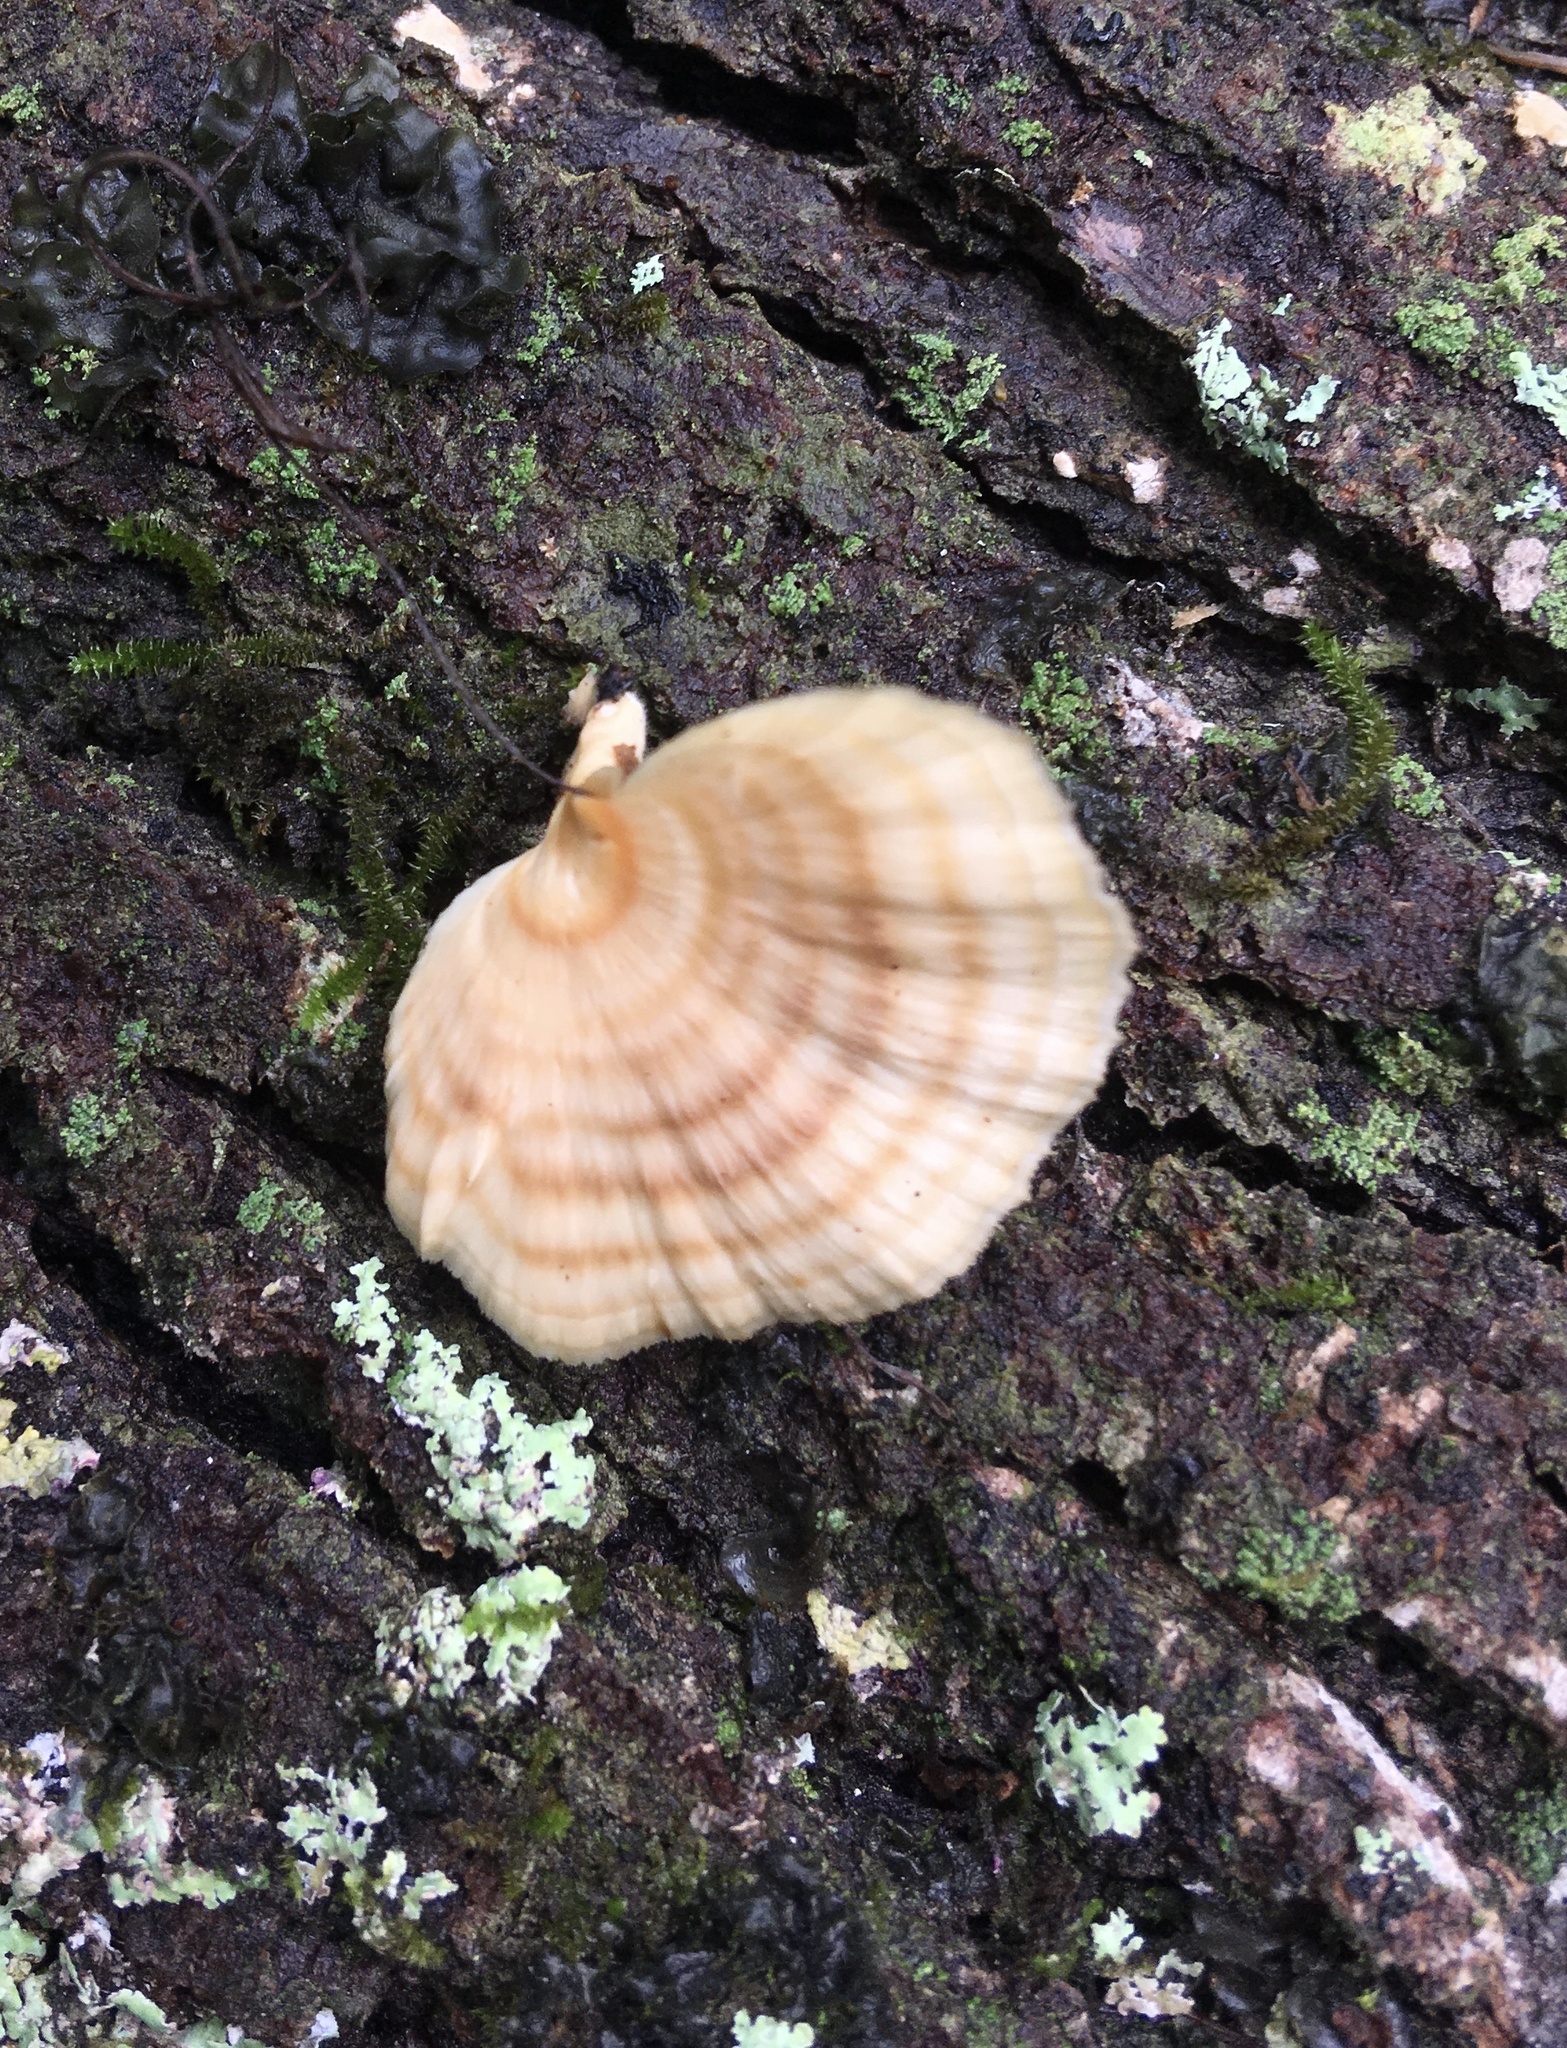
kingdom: Fungi
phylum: Basidiomycota
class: Agaricomycetes
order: Polyporales
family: Polyporaceae
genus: Microporellus
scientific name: Microporellus obovatus
